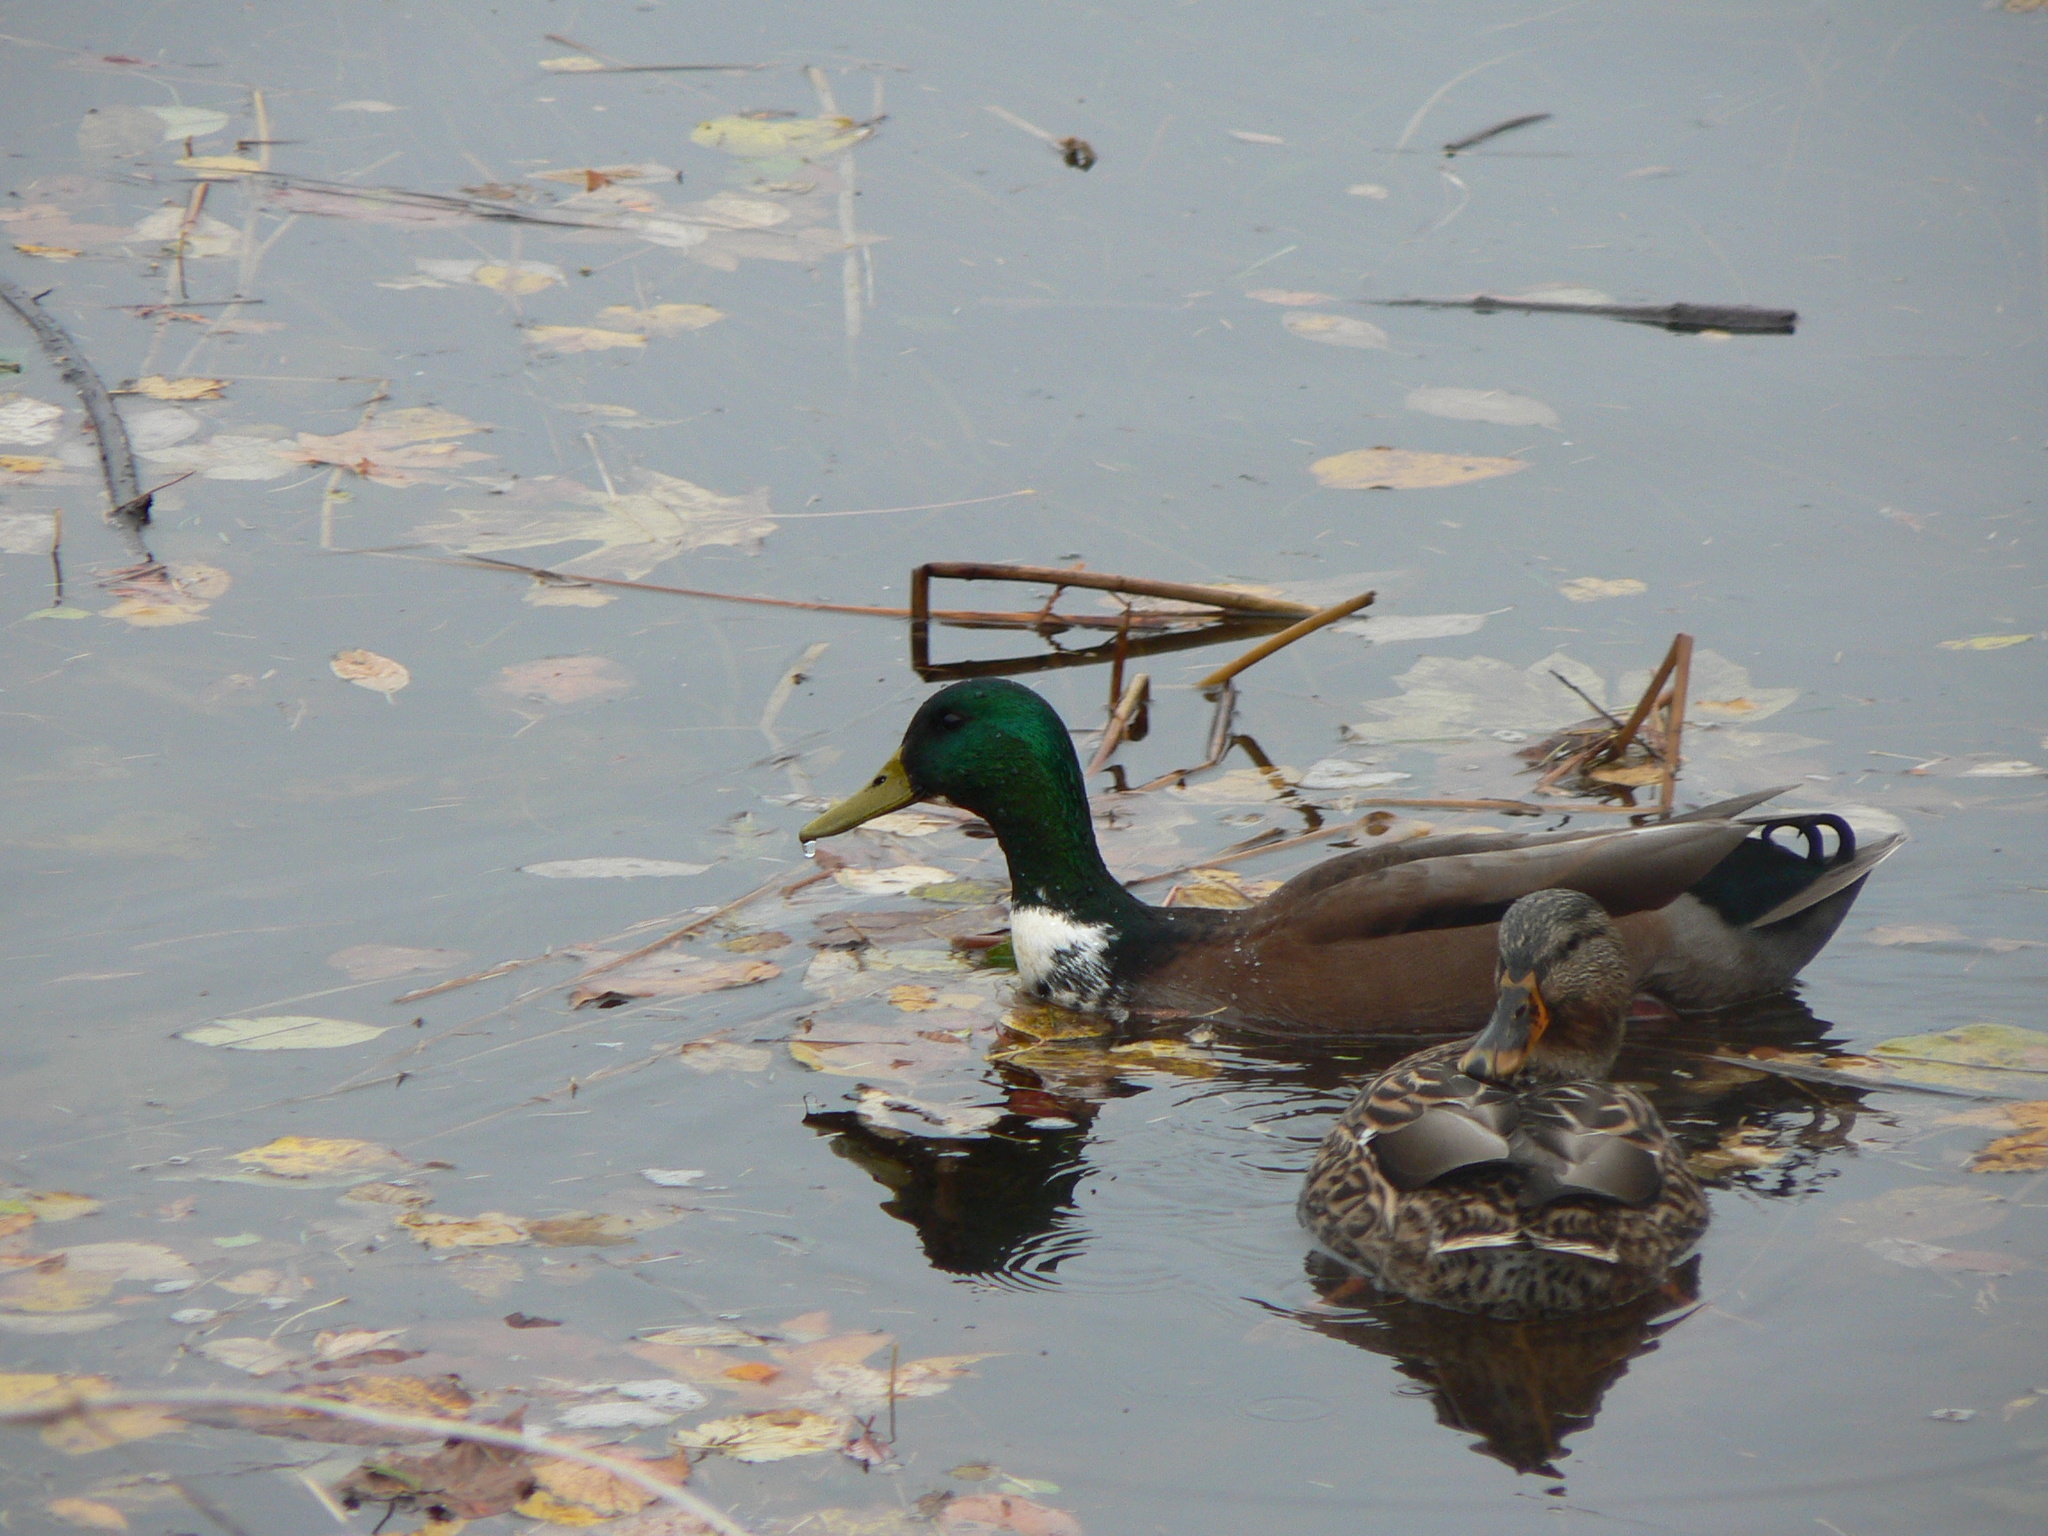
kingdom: Animalia
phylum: Chordata
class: Aves
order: Anseriformes
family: Anatidae
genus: Anas
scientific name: Anas platyrhynchos
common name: Mallard
